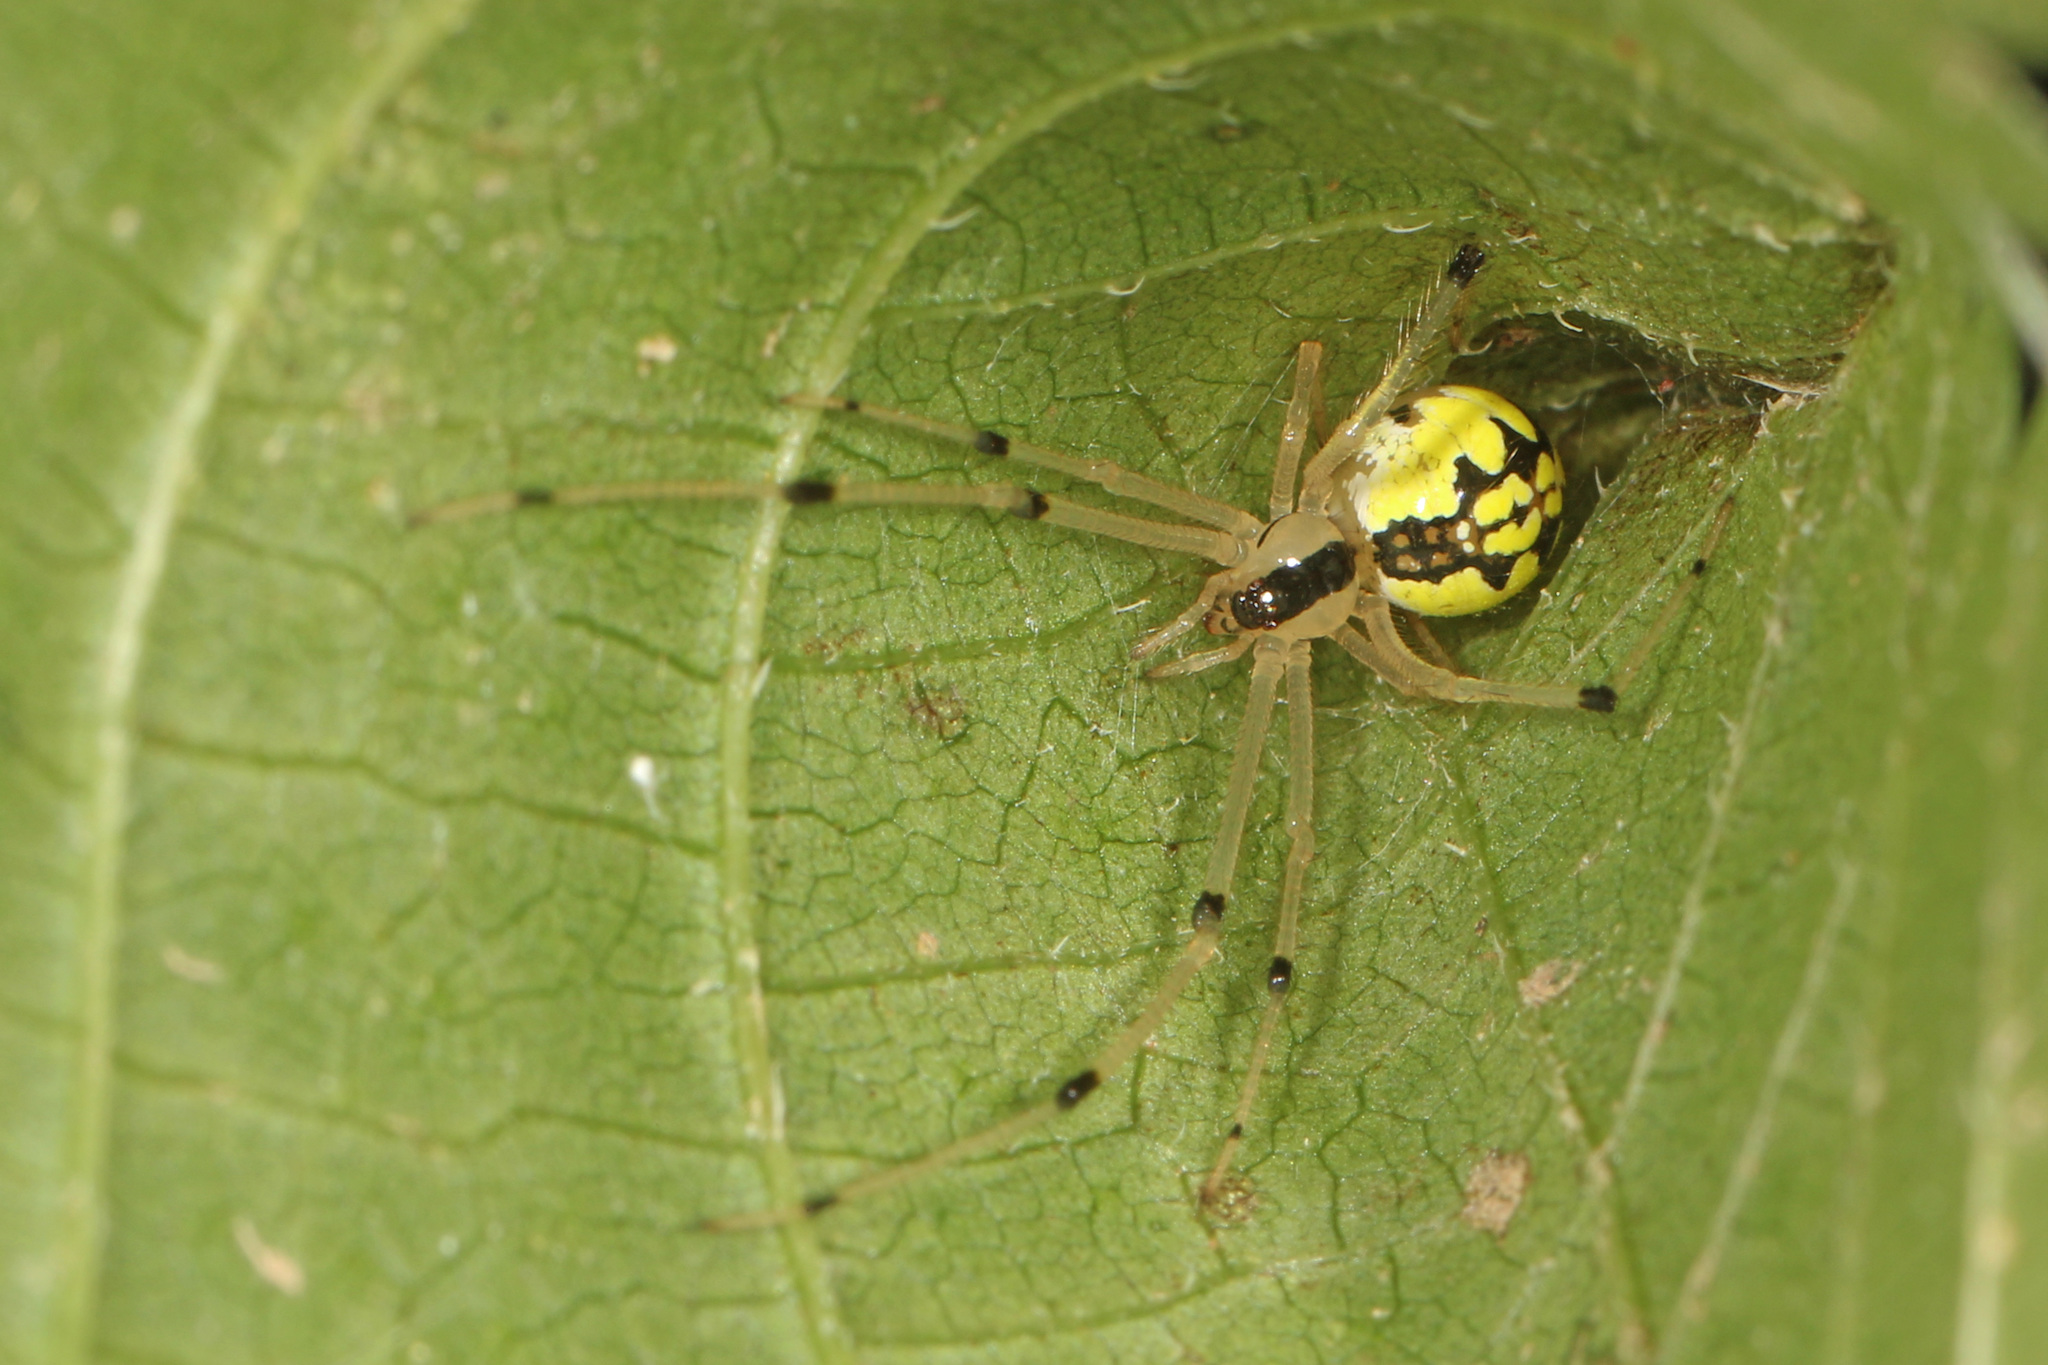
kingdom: Animalia
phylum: Arthropoda
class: Arachnida
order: Araneae
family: Theridiidae
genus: Phylloneta
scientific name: Phylloneta pictipes
